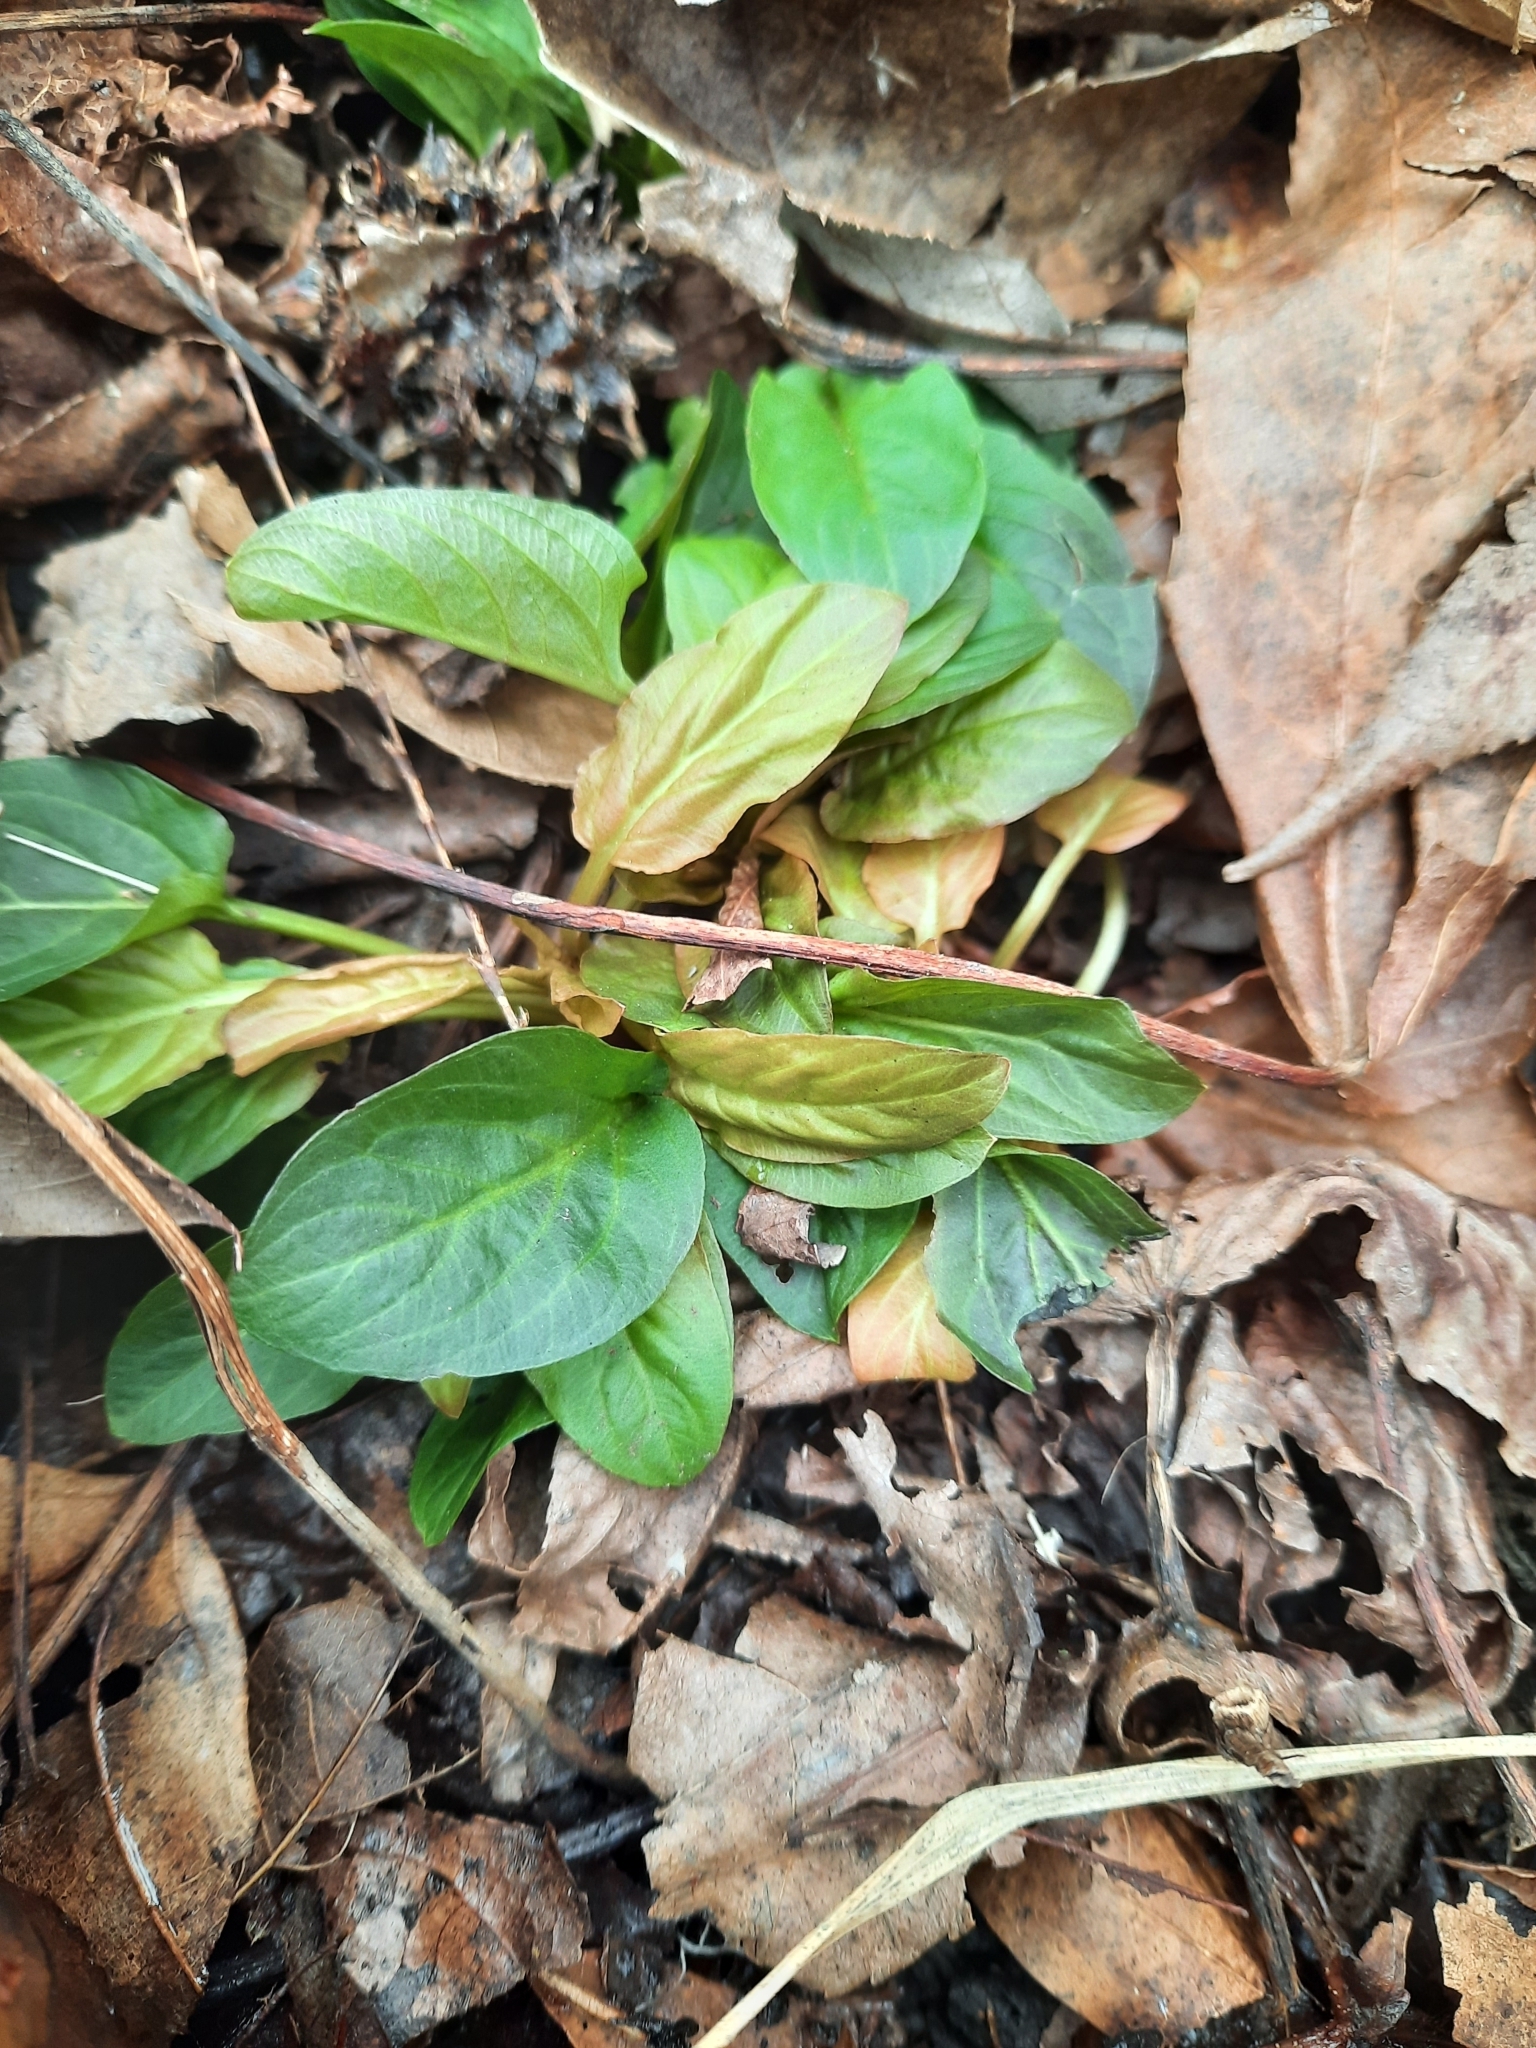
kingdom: Plantae
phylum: Tracheophyta
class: Magnoliopsida
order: Ericales
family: Primulaceae
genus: Lysimachia
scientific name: Lysimachia hybrida
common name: Lowland loosestrife
